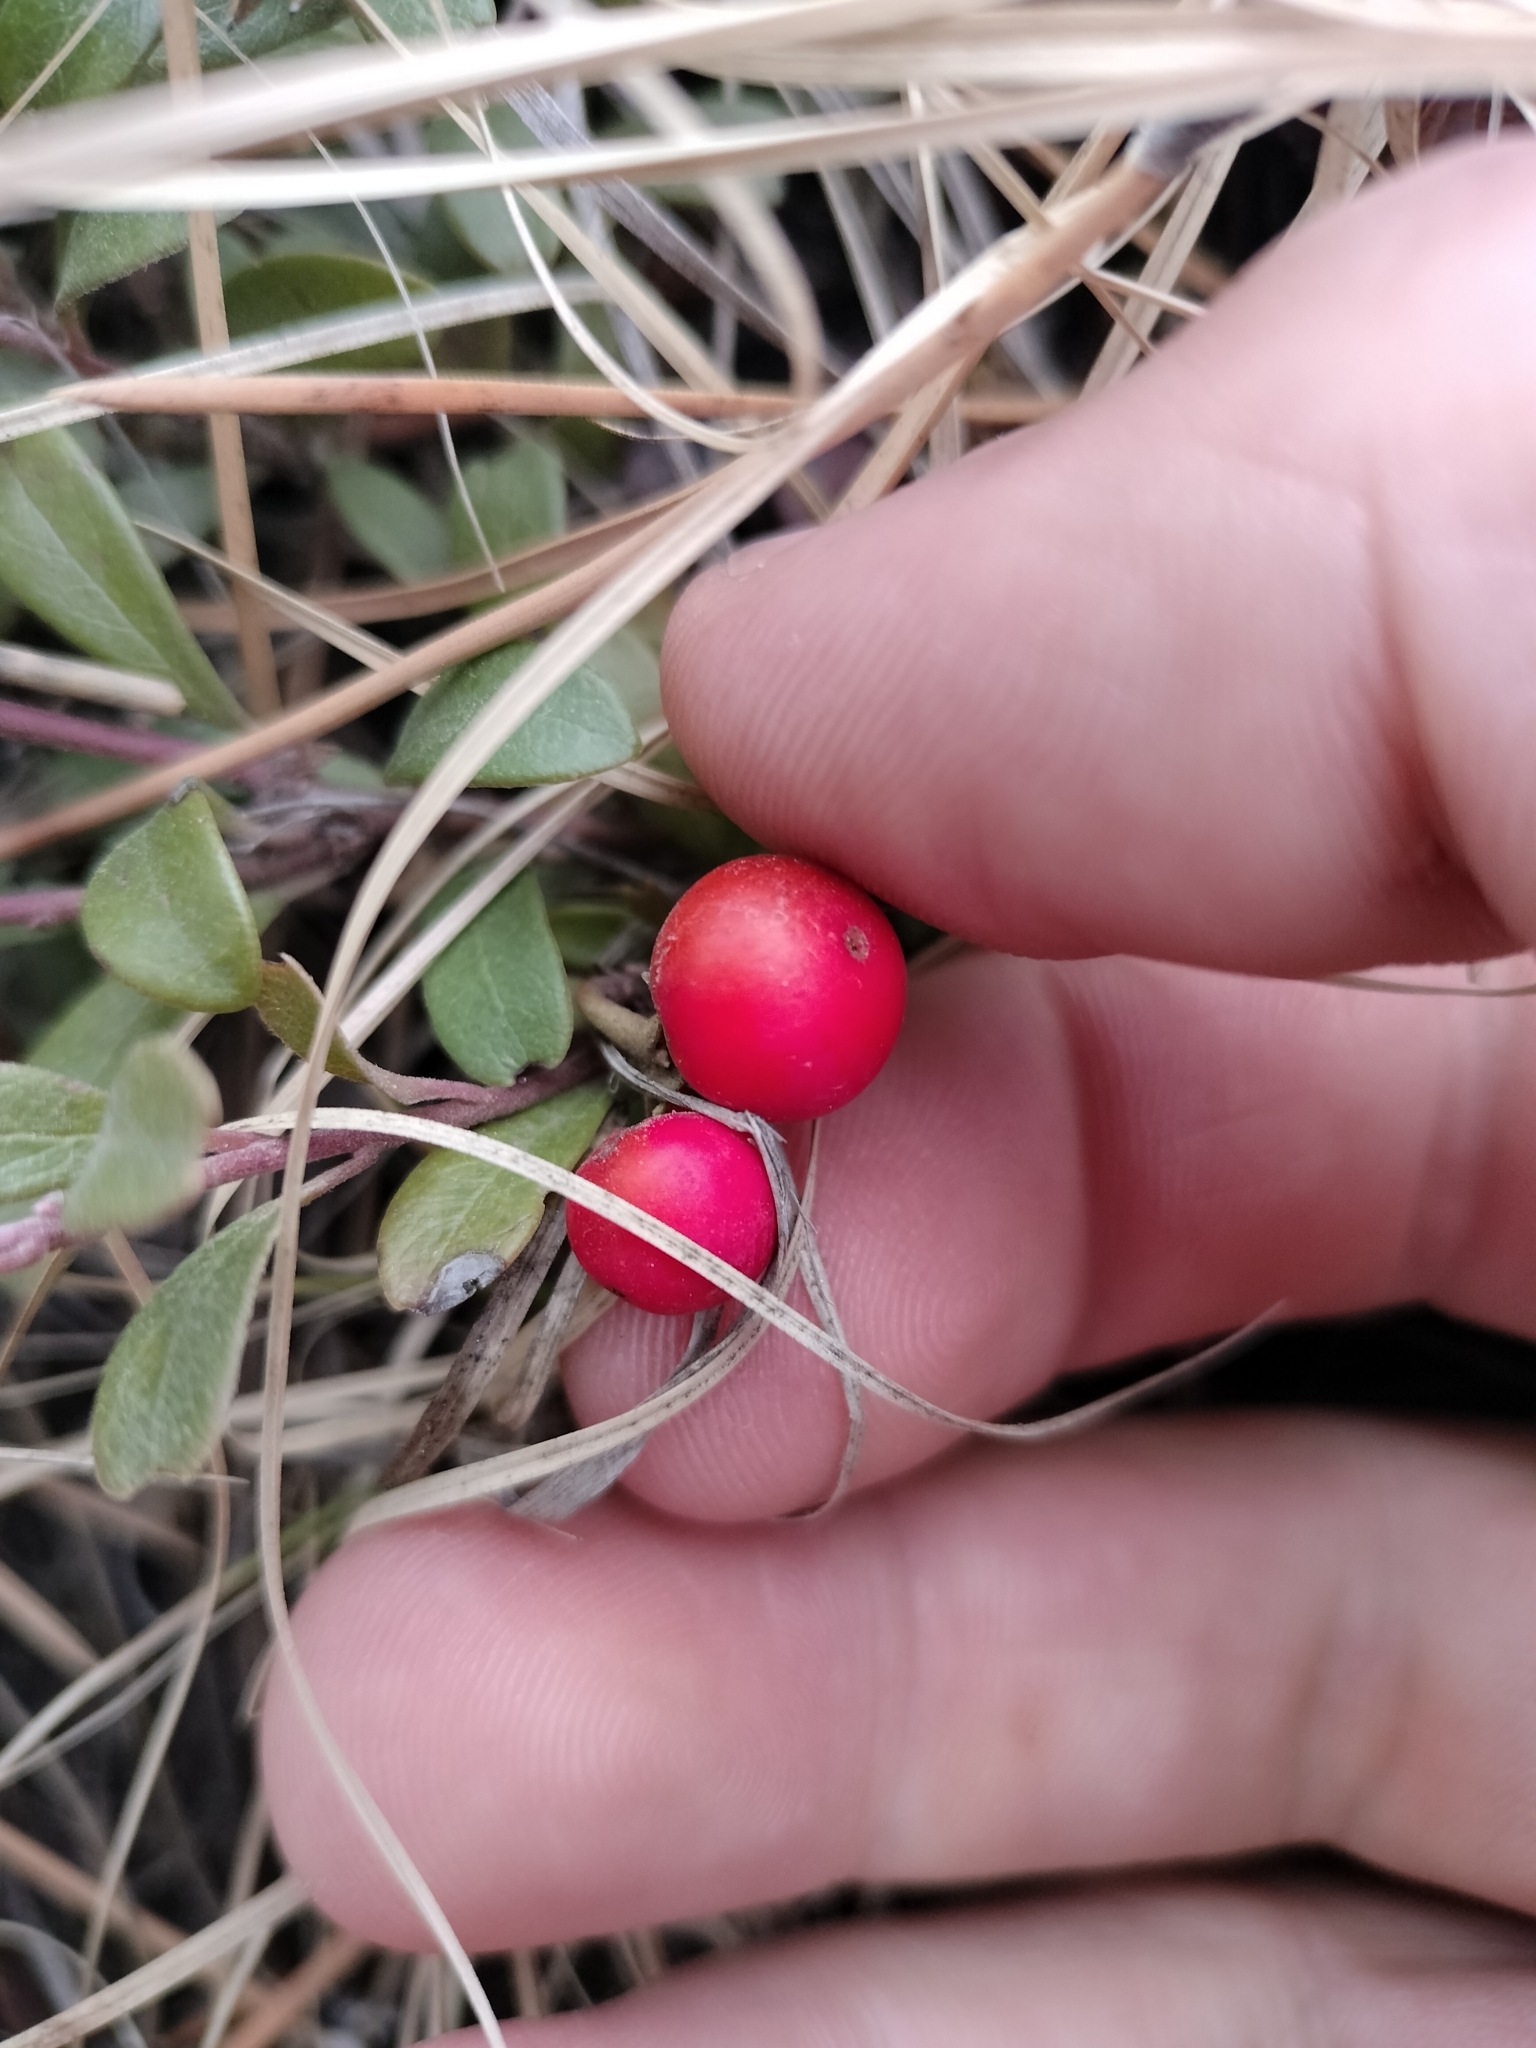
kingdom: Plantae
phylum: Tracheophyta
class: Magnoliopsida
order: Ericales
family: Ericaceae
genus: Arctostaphylos
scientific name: Arctostaphylos uva-ursi
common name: Bearberry
